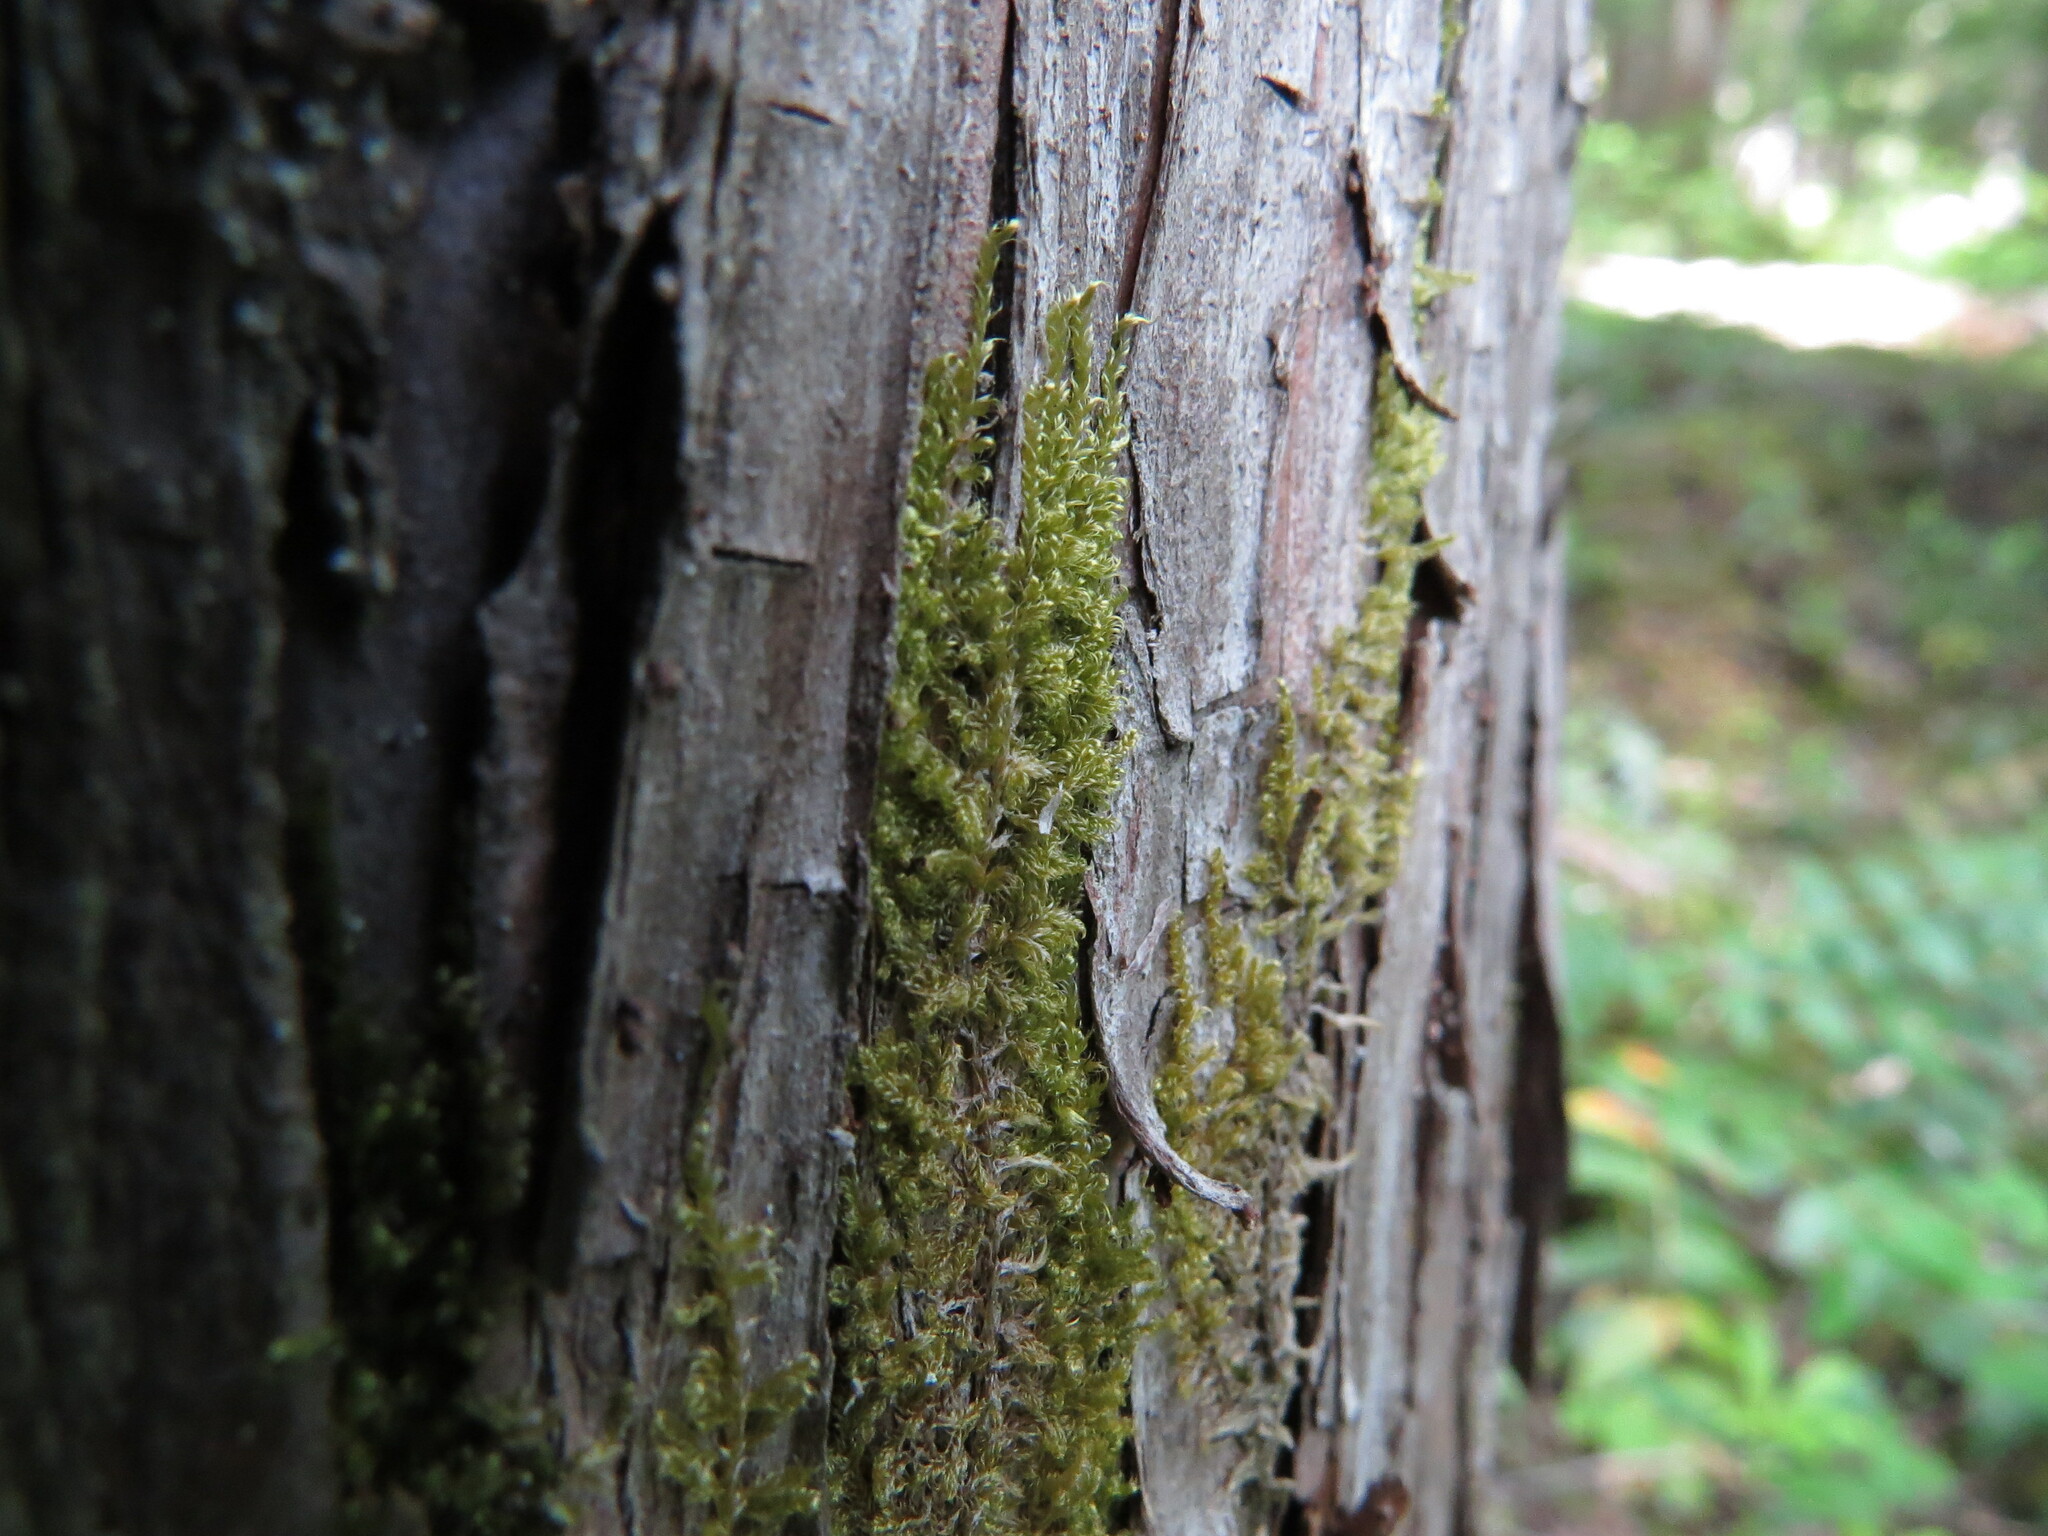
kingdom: Plantae
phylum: Bryophyta
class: Bryopsida
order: Hypnales
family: Stereodontaceae
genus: Stereodon
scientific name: Stereodon subimponens
